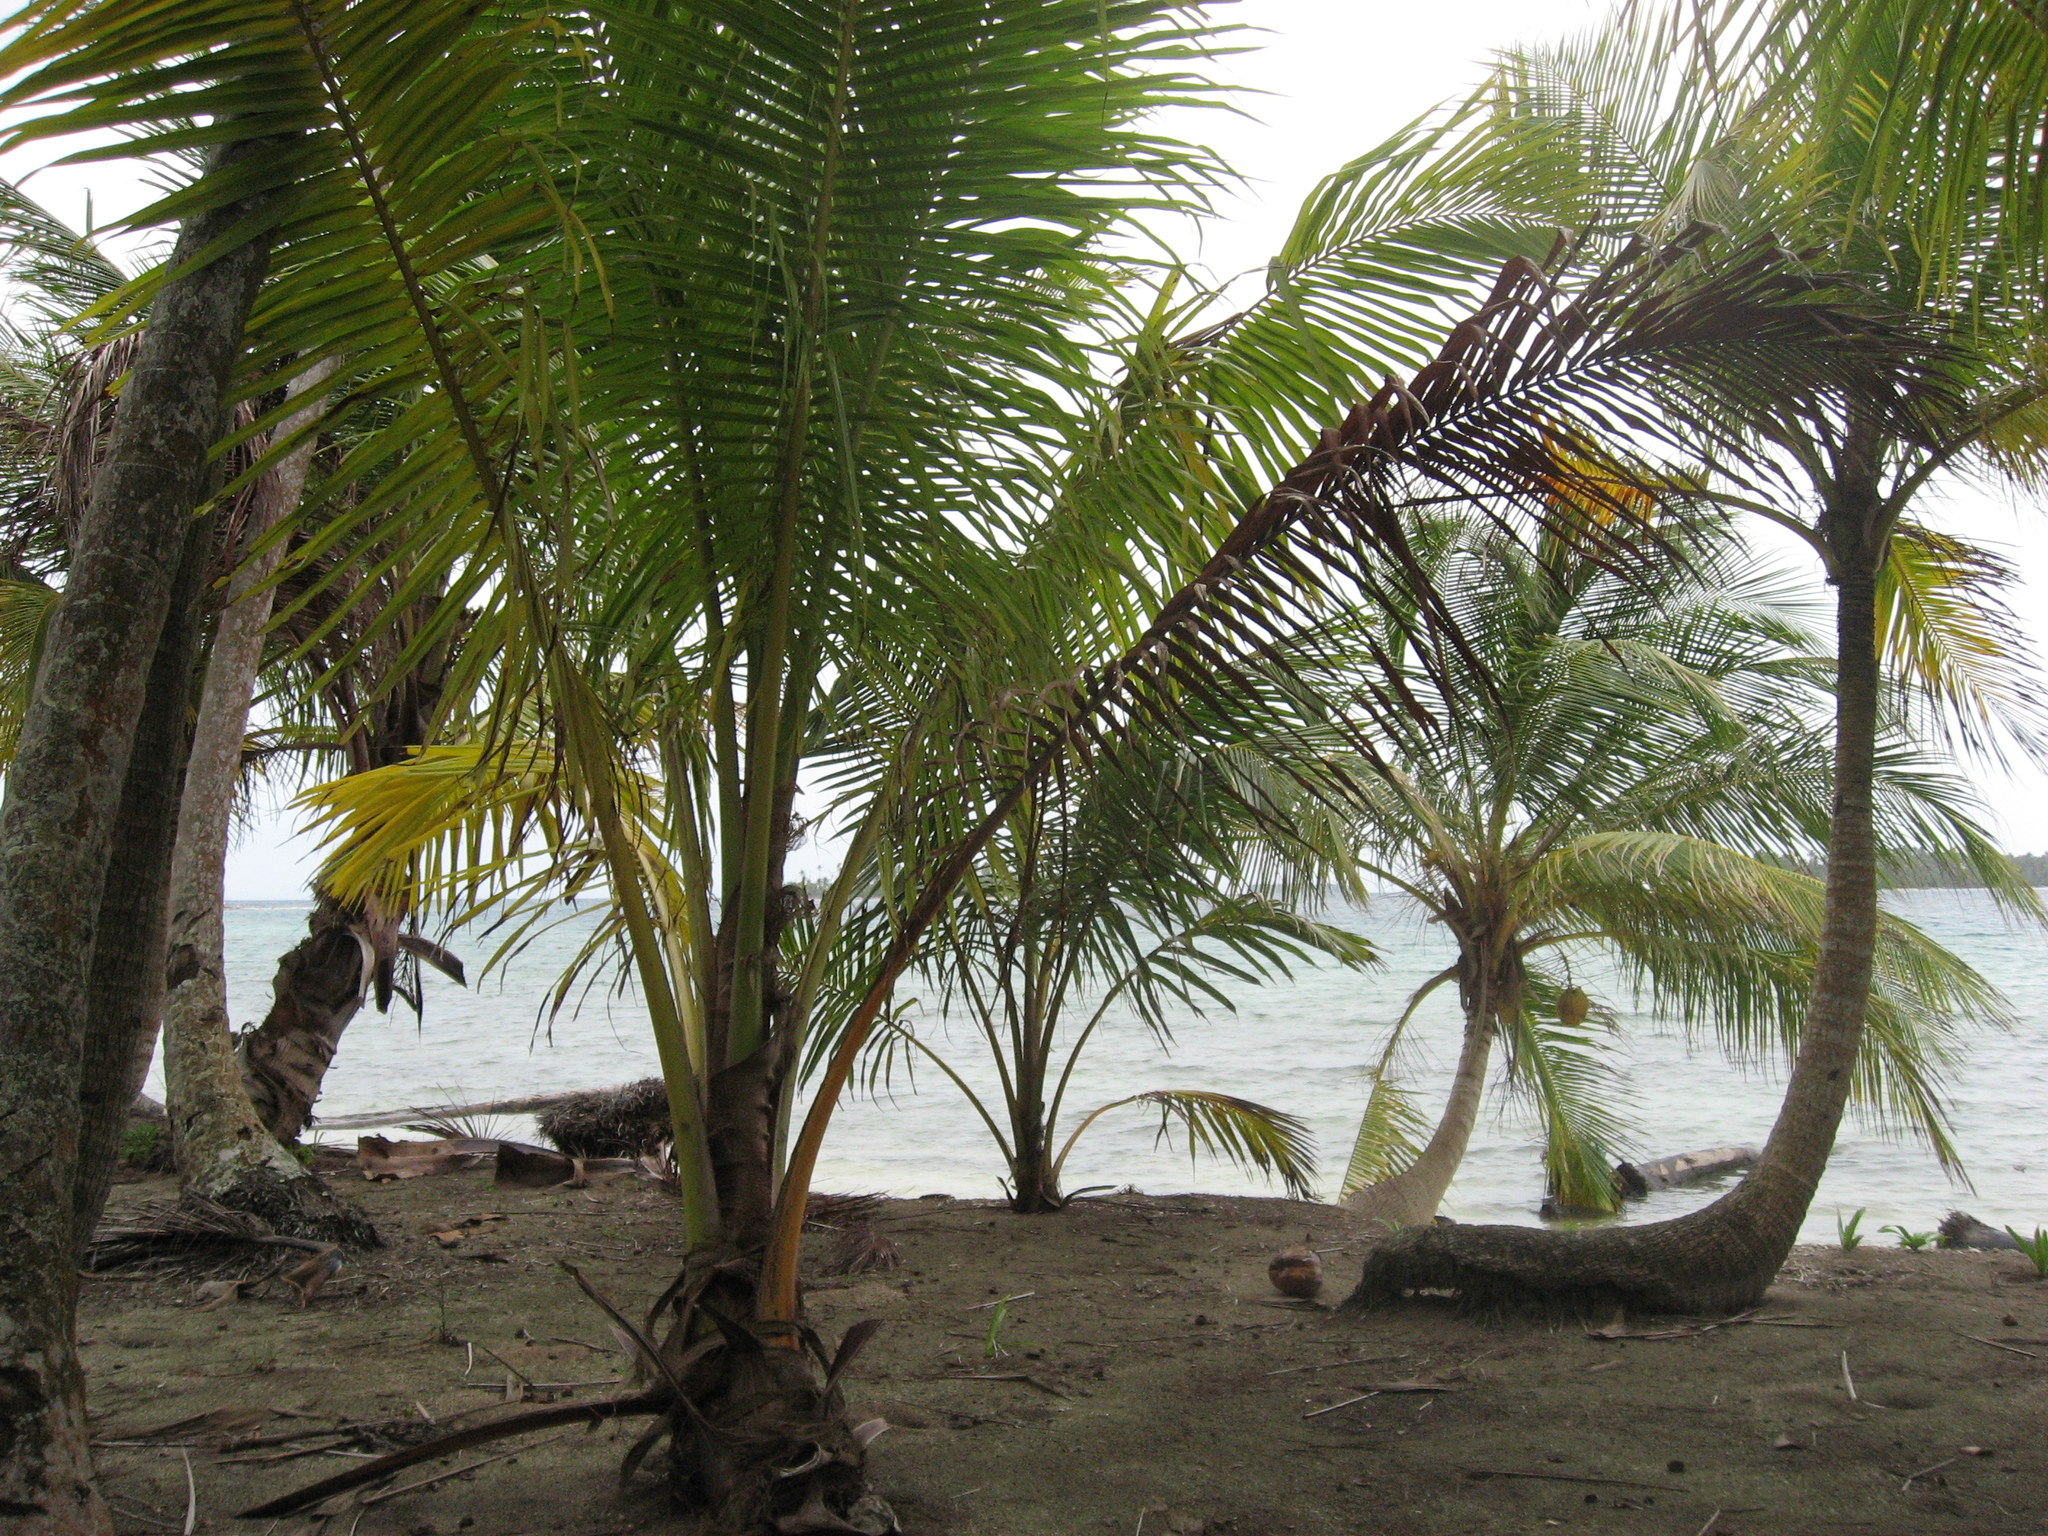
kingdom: Plantae
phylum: Tracheophyta
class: Liliopsida
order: Arecales
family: Arecaceae
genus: Cocos
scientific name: Cocos nucifera
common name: Coconut palm
